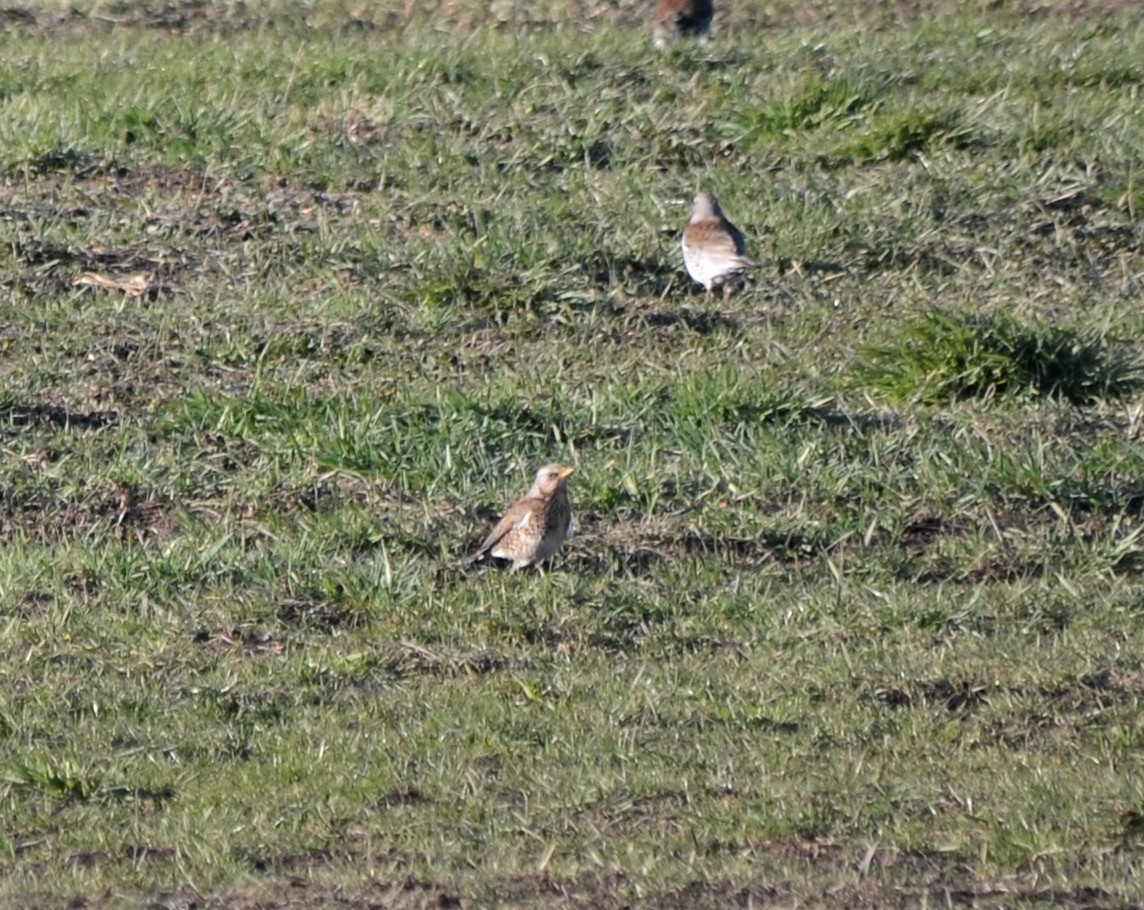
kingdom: Animalia
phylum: Chordata
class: Aves
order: Passeriformes
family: Turdidae
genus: Turdus
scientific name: Turdus pilaris
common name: Fieldfare
